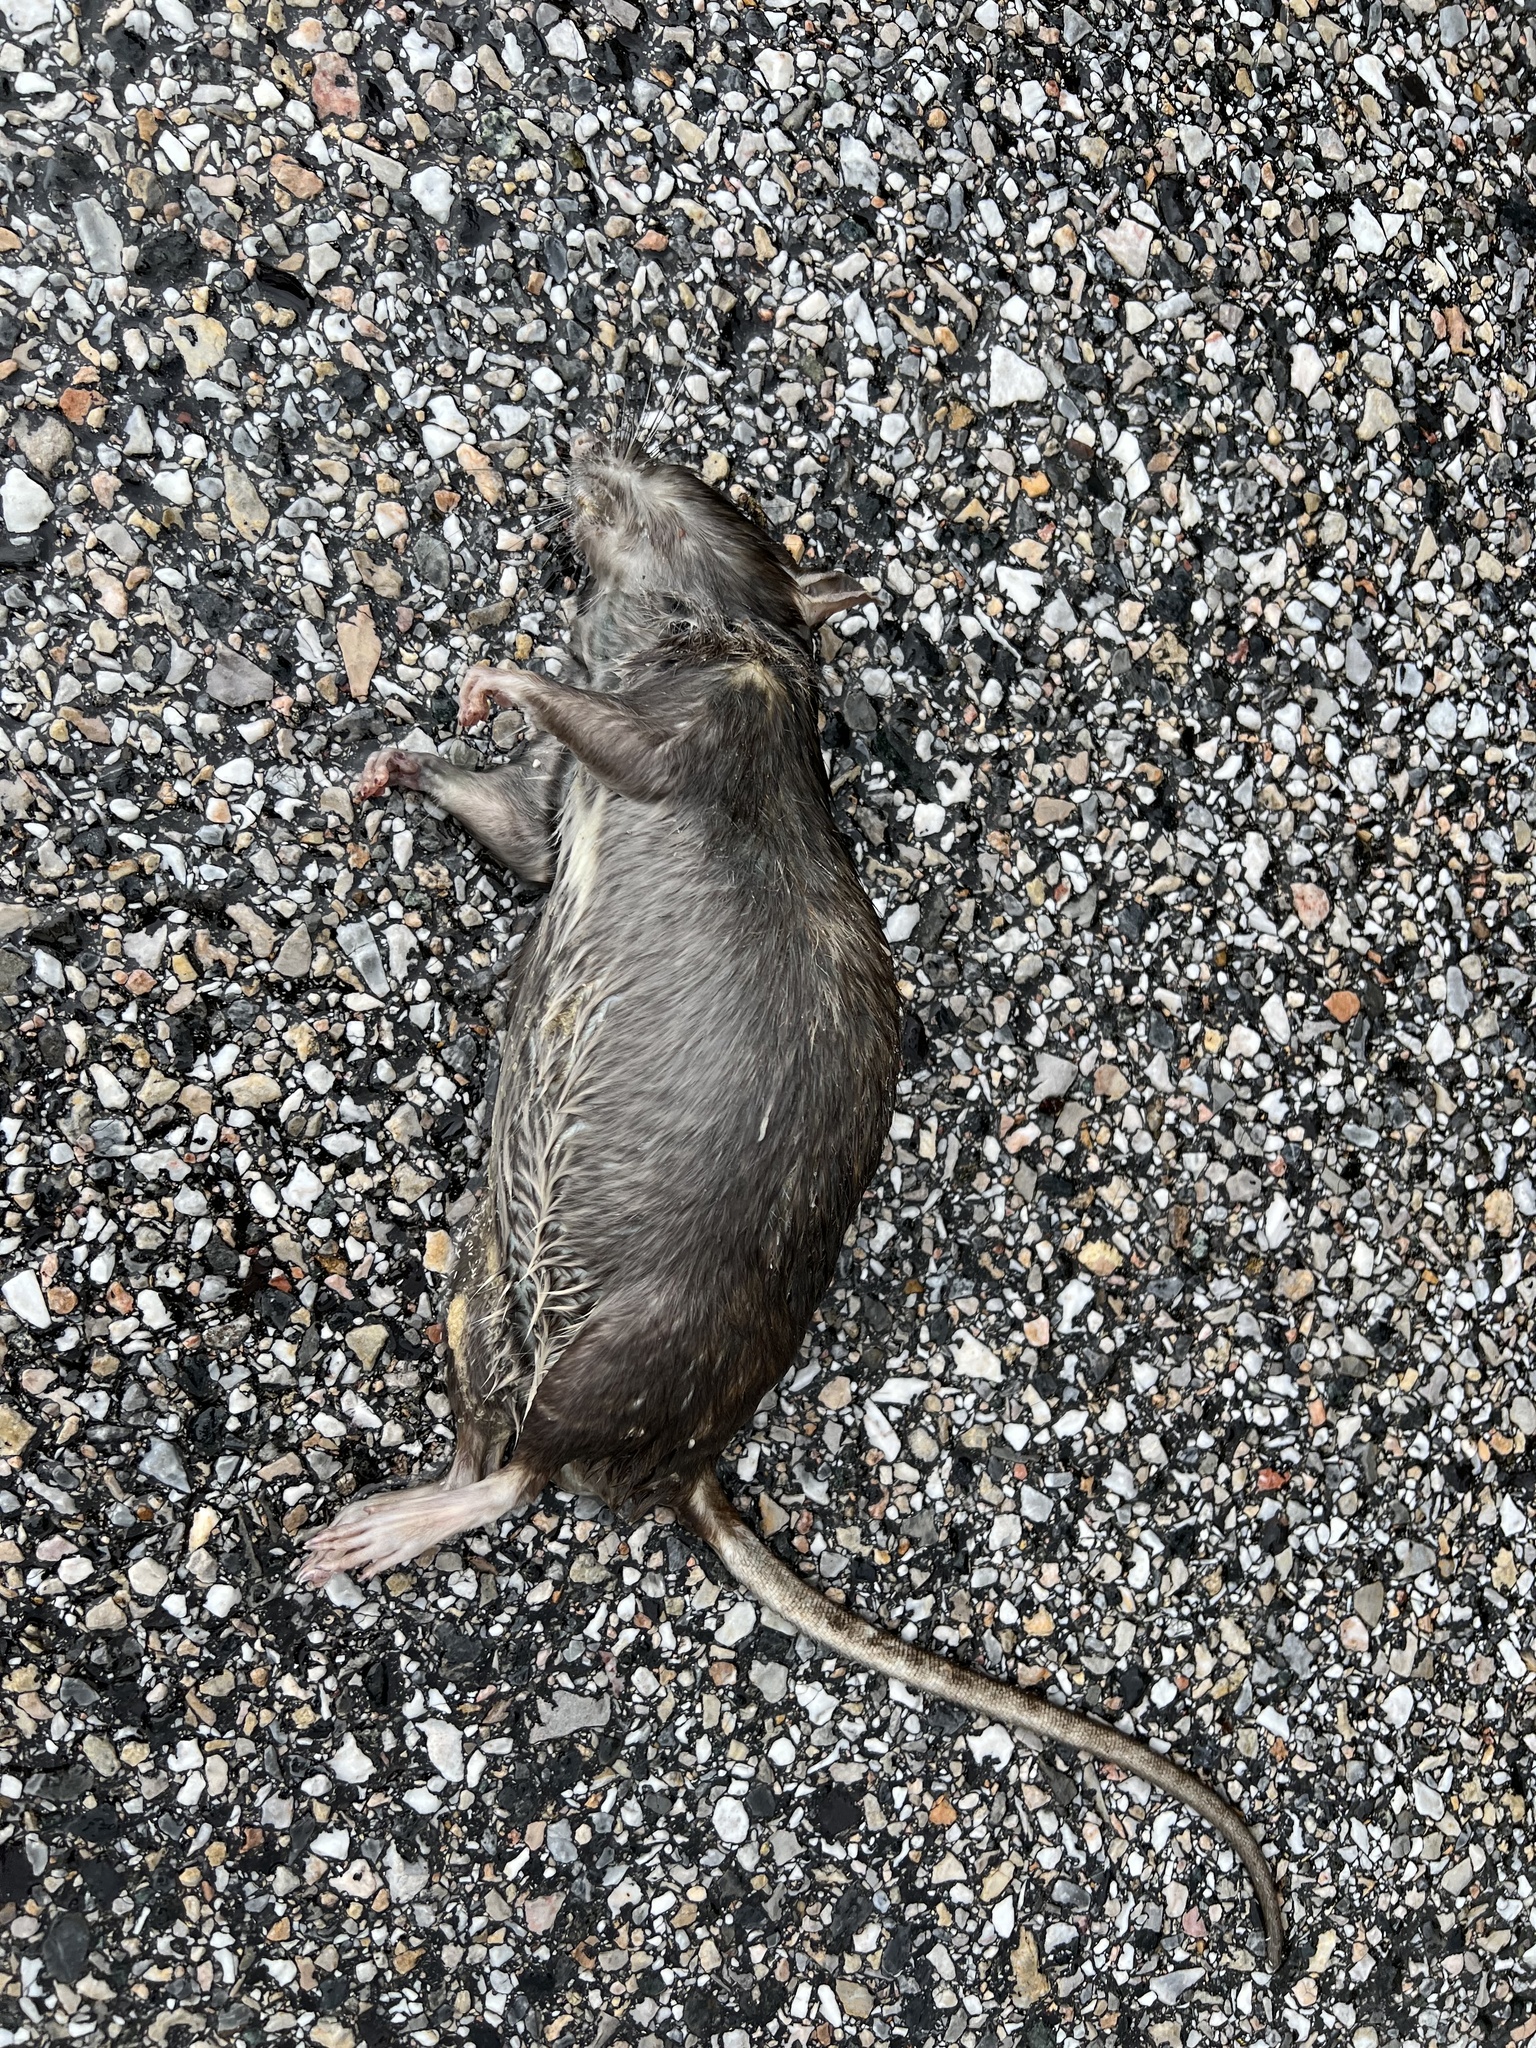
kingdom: Animalia
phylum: Chordata
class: Mammalia
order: Rodentia
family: Muridae
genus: Rattus
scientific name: Rattus norvegicus
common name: Brown rat
